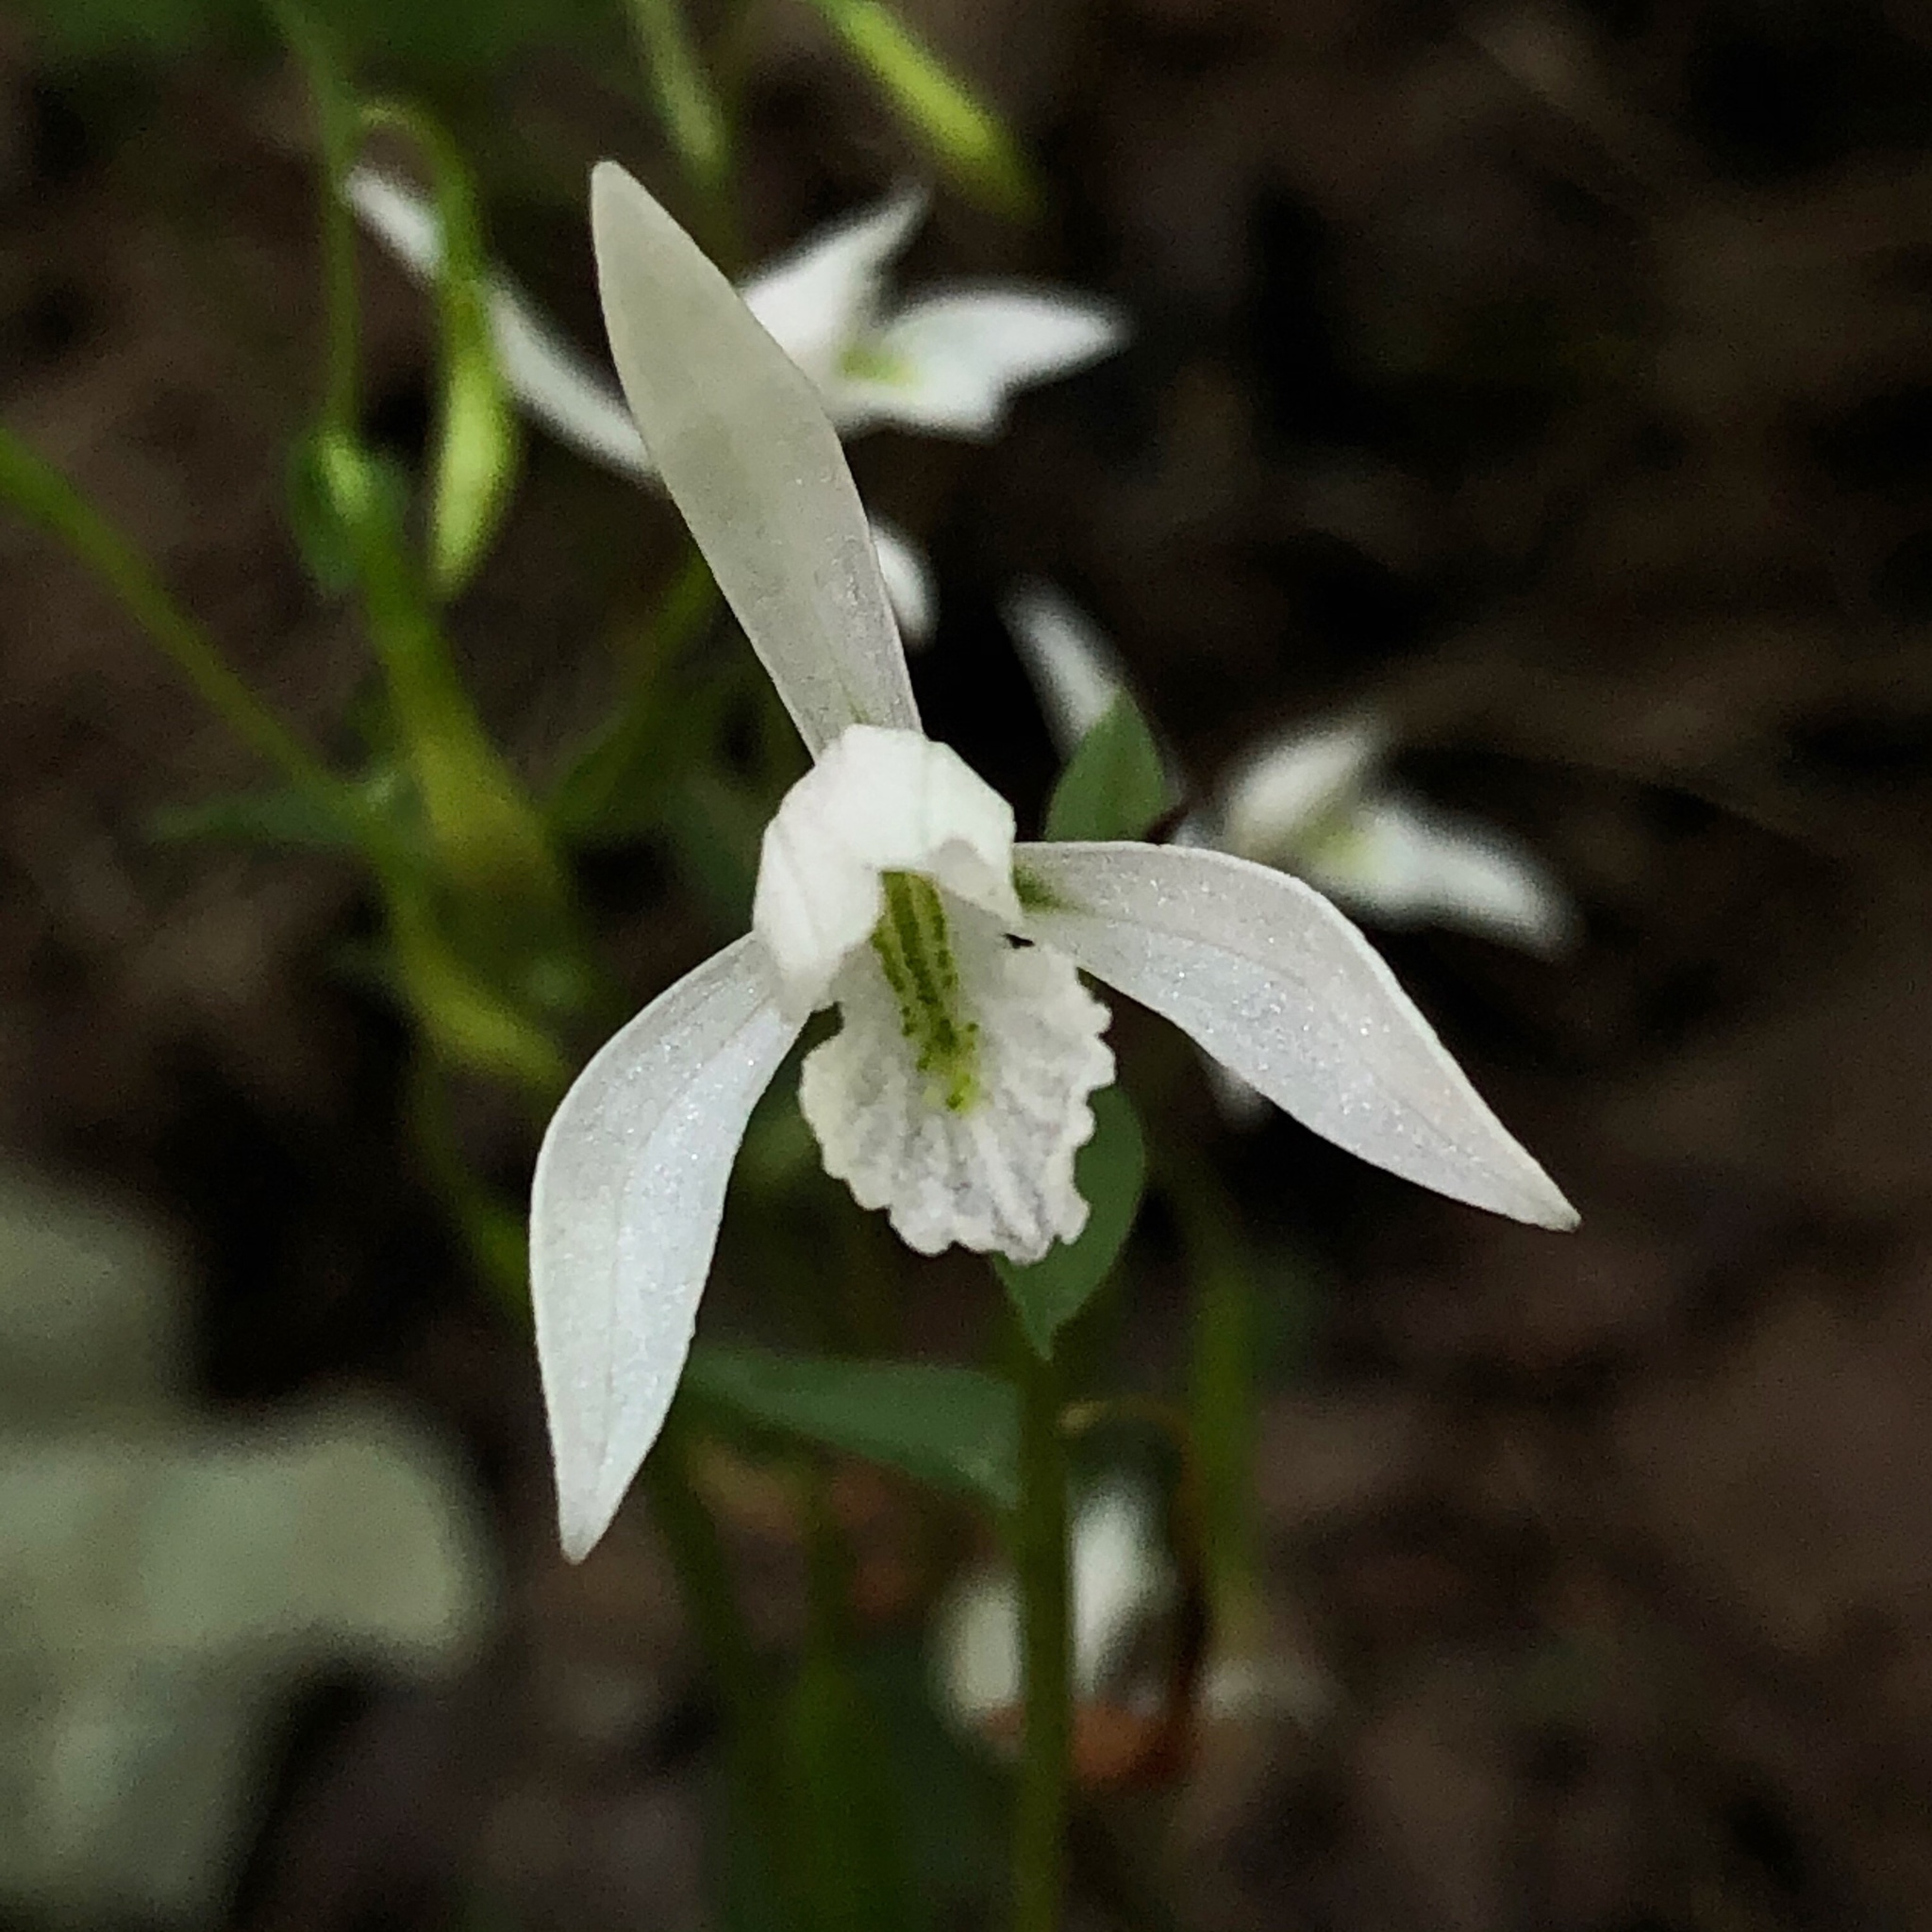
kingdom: Plantae
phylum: Tracheophyta
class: Liliopsida
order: Asparagales
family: Orchidaceae
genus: Triphora
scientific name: Triphora trianthophoros
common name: Three birds orchid
